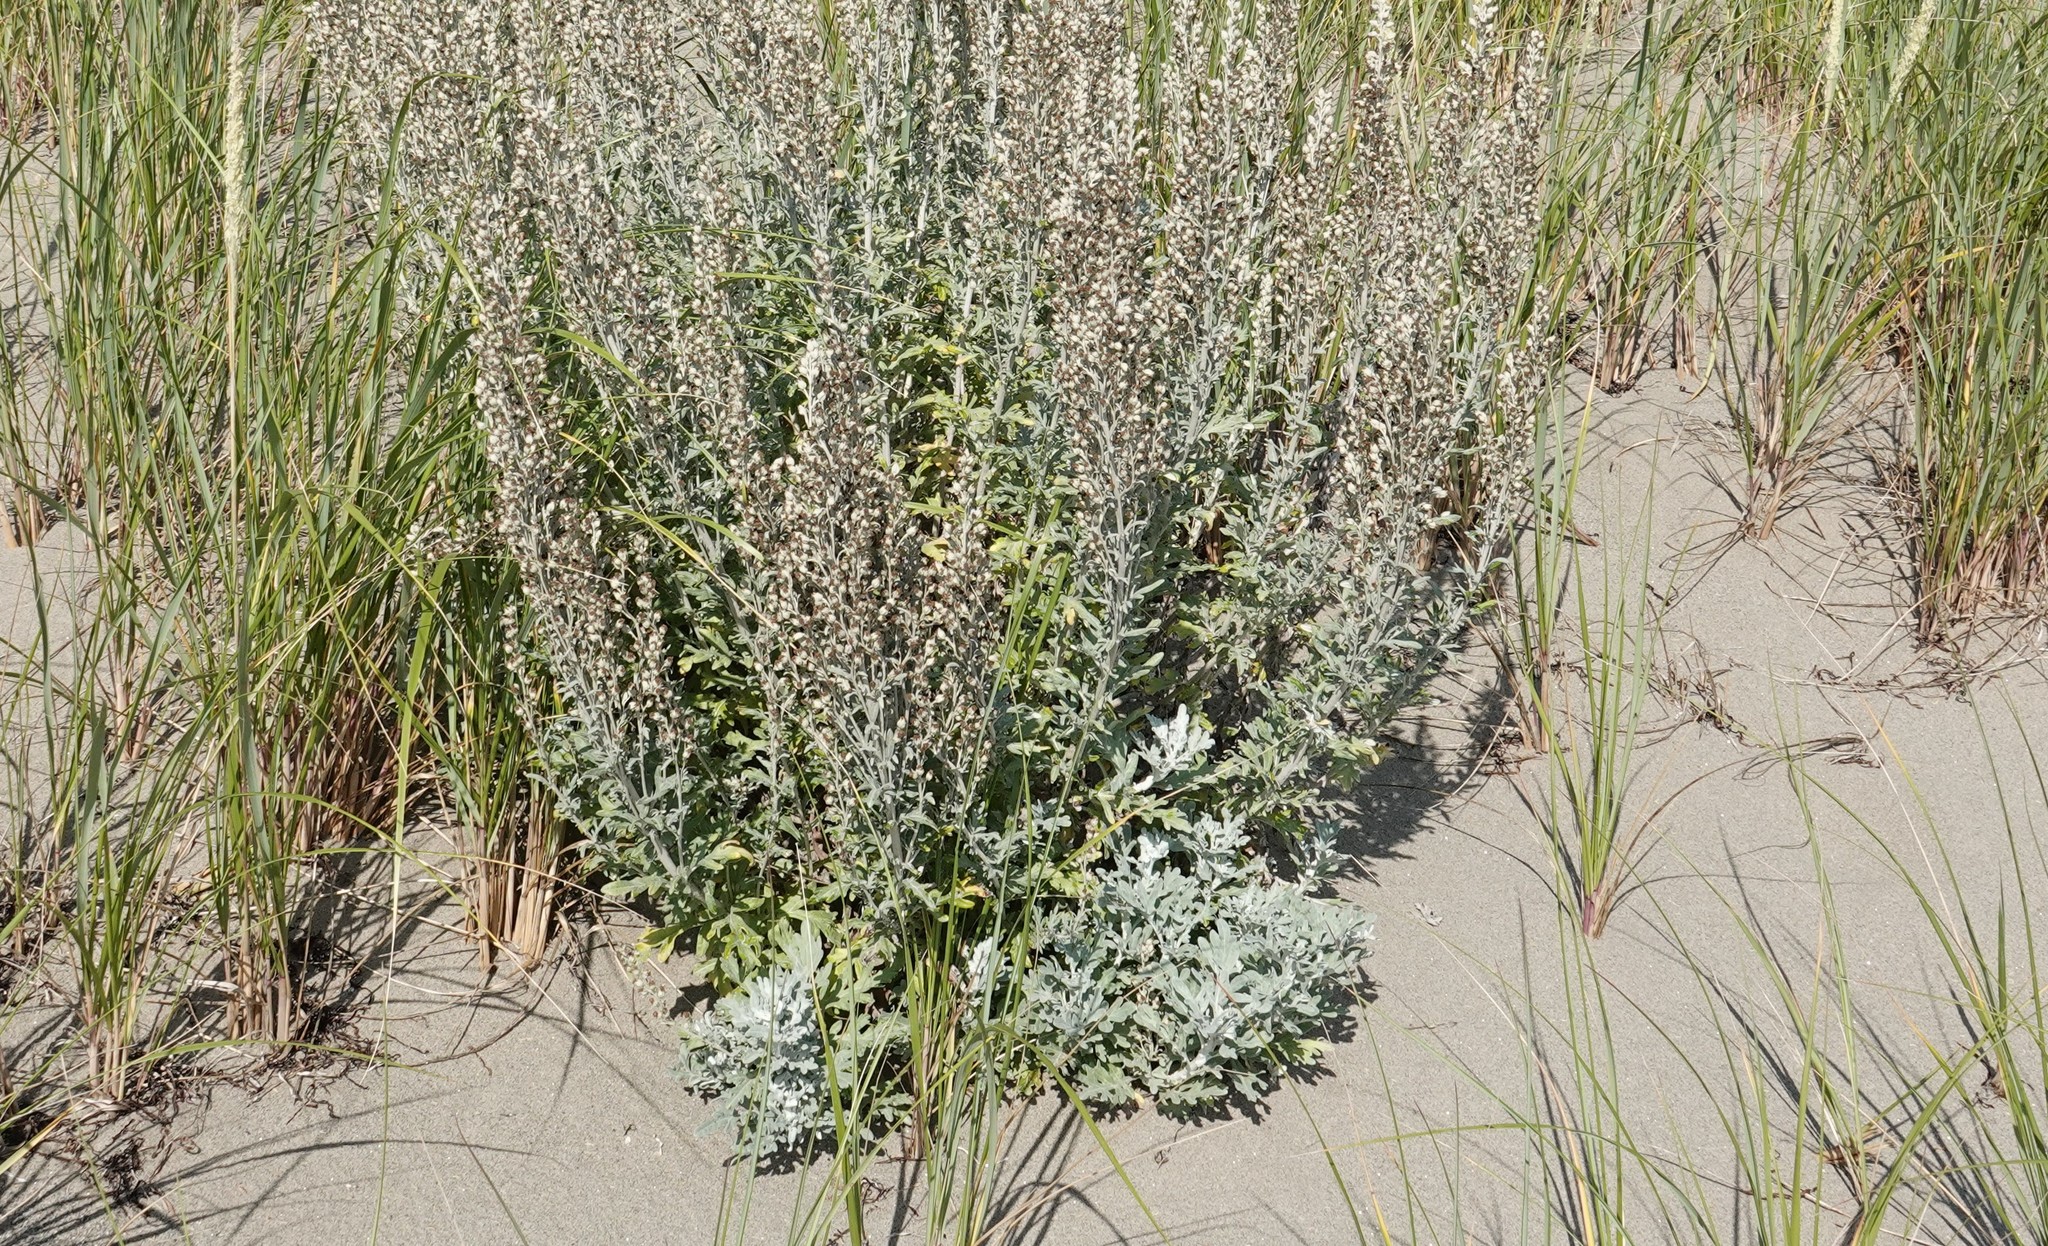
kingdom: Plantae
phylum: Tracheophyta
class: Magnoliopsida
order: Asterales
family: Asteraceae
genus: Artemisia
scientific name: Artemisia stelleriana
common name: Beach wormwood
